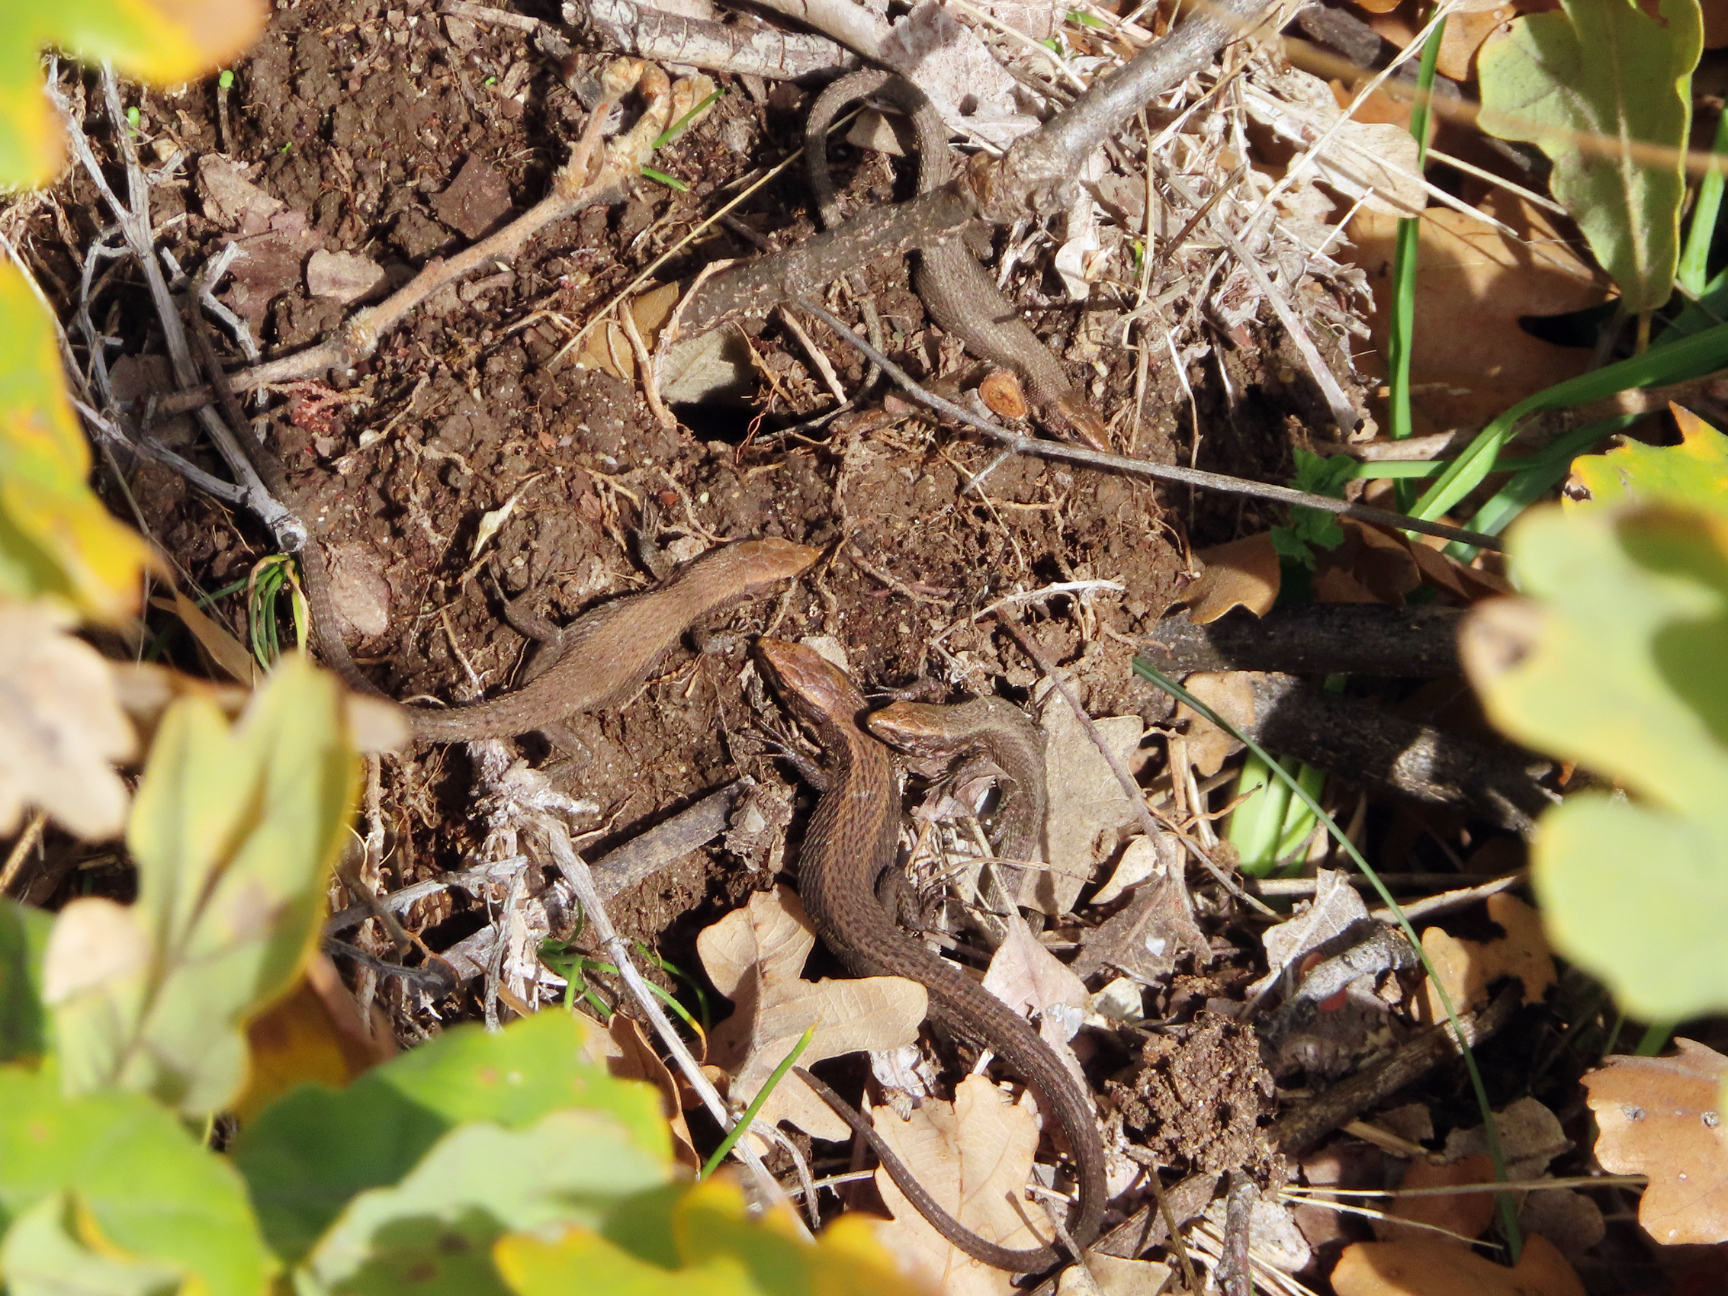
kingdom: Animalia
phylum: Chordata
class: Squamata
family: Lacertidae
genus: Algyroides
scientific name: Algyroides moreoticus
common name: Greek algyroides
